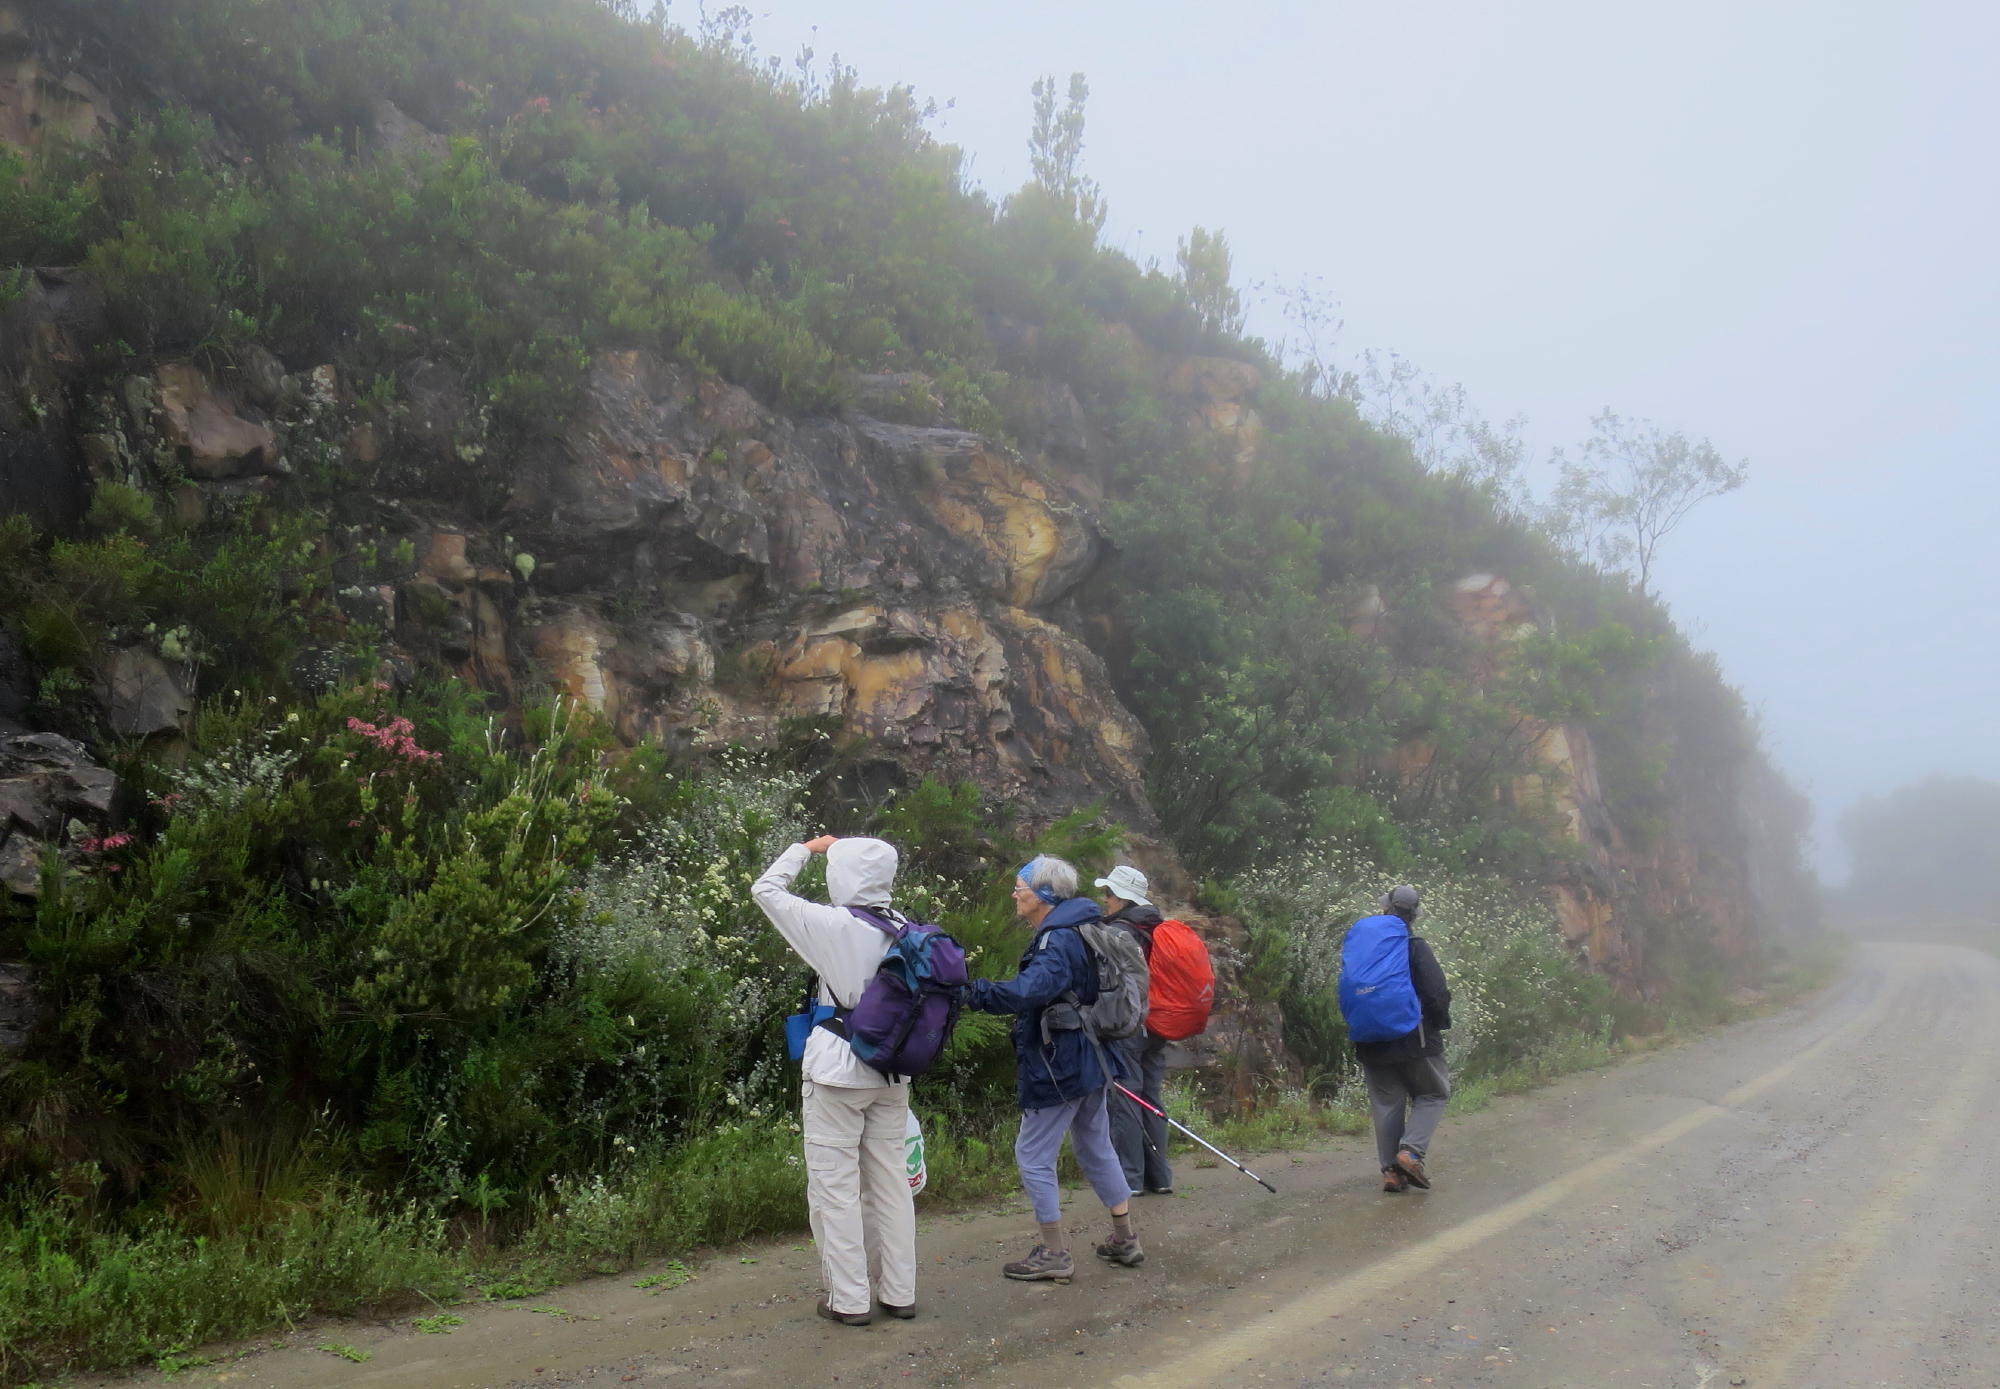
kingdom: Plantae
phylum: Tracheophyta
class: Magnoliopsida
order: Ericales
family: Ericaceae
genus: Erica
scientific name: Erica densifolia
